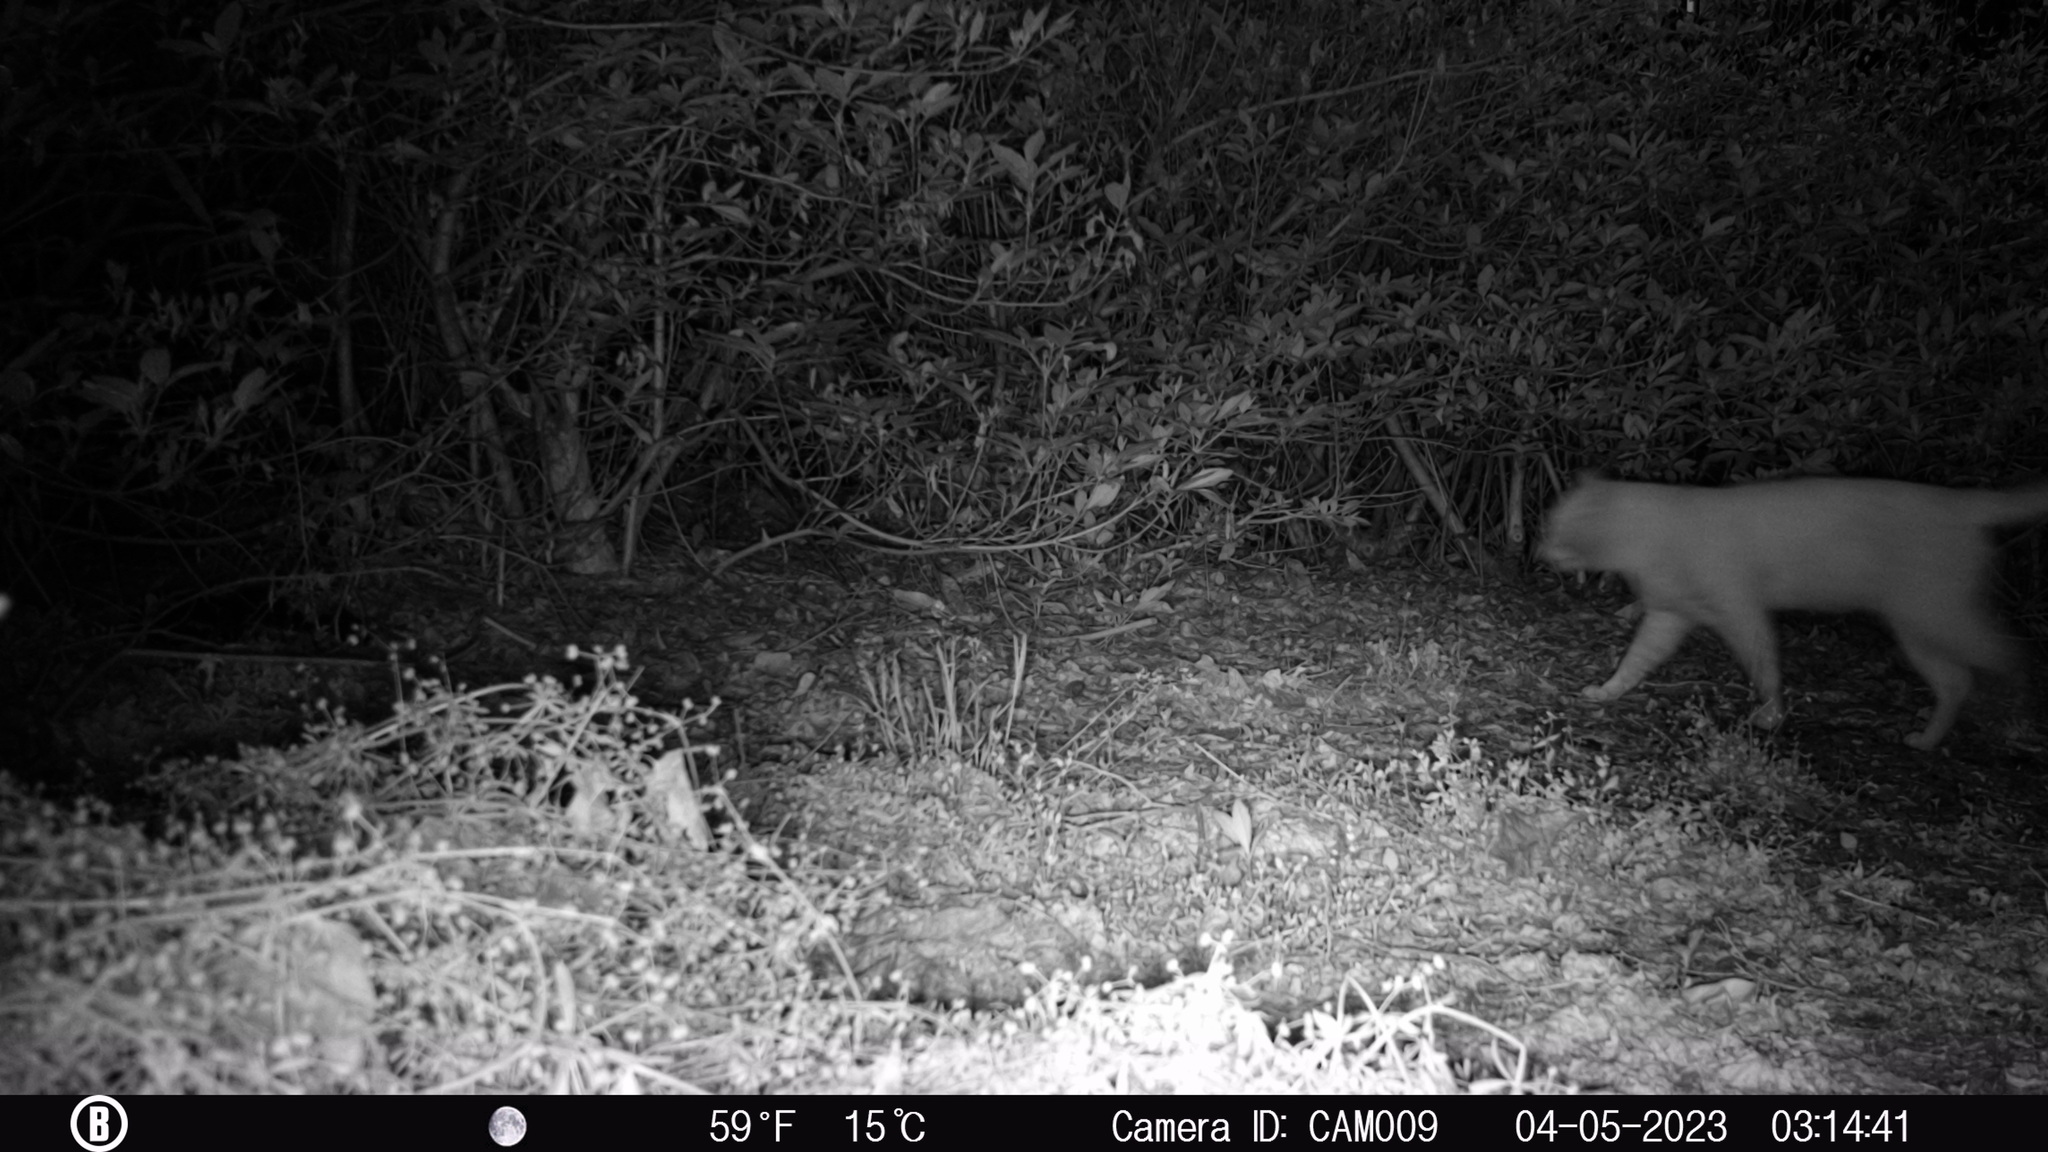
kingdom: Animalia
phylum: Chordata
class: Mammalia
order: Carnivora
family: Felidae
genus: Felis
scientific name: Felis catus
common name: Domestic cat
